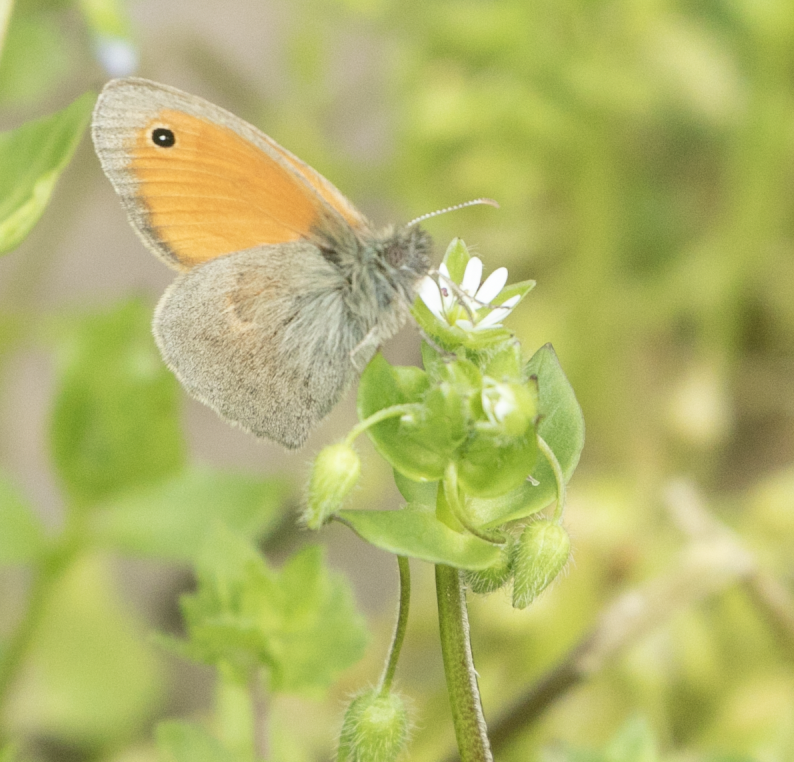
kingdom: Animalia
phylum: Arthropoda
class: Insecta
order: Lepidoptera
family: Nymphalidae
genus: Coenonympha
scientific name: Coenonympha pamphilus
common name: Small heath
